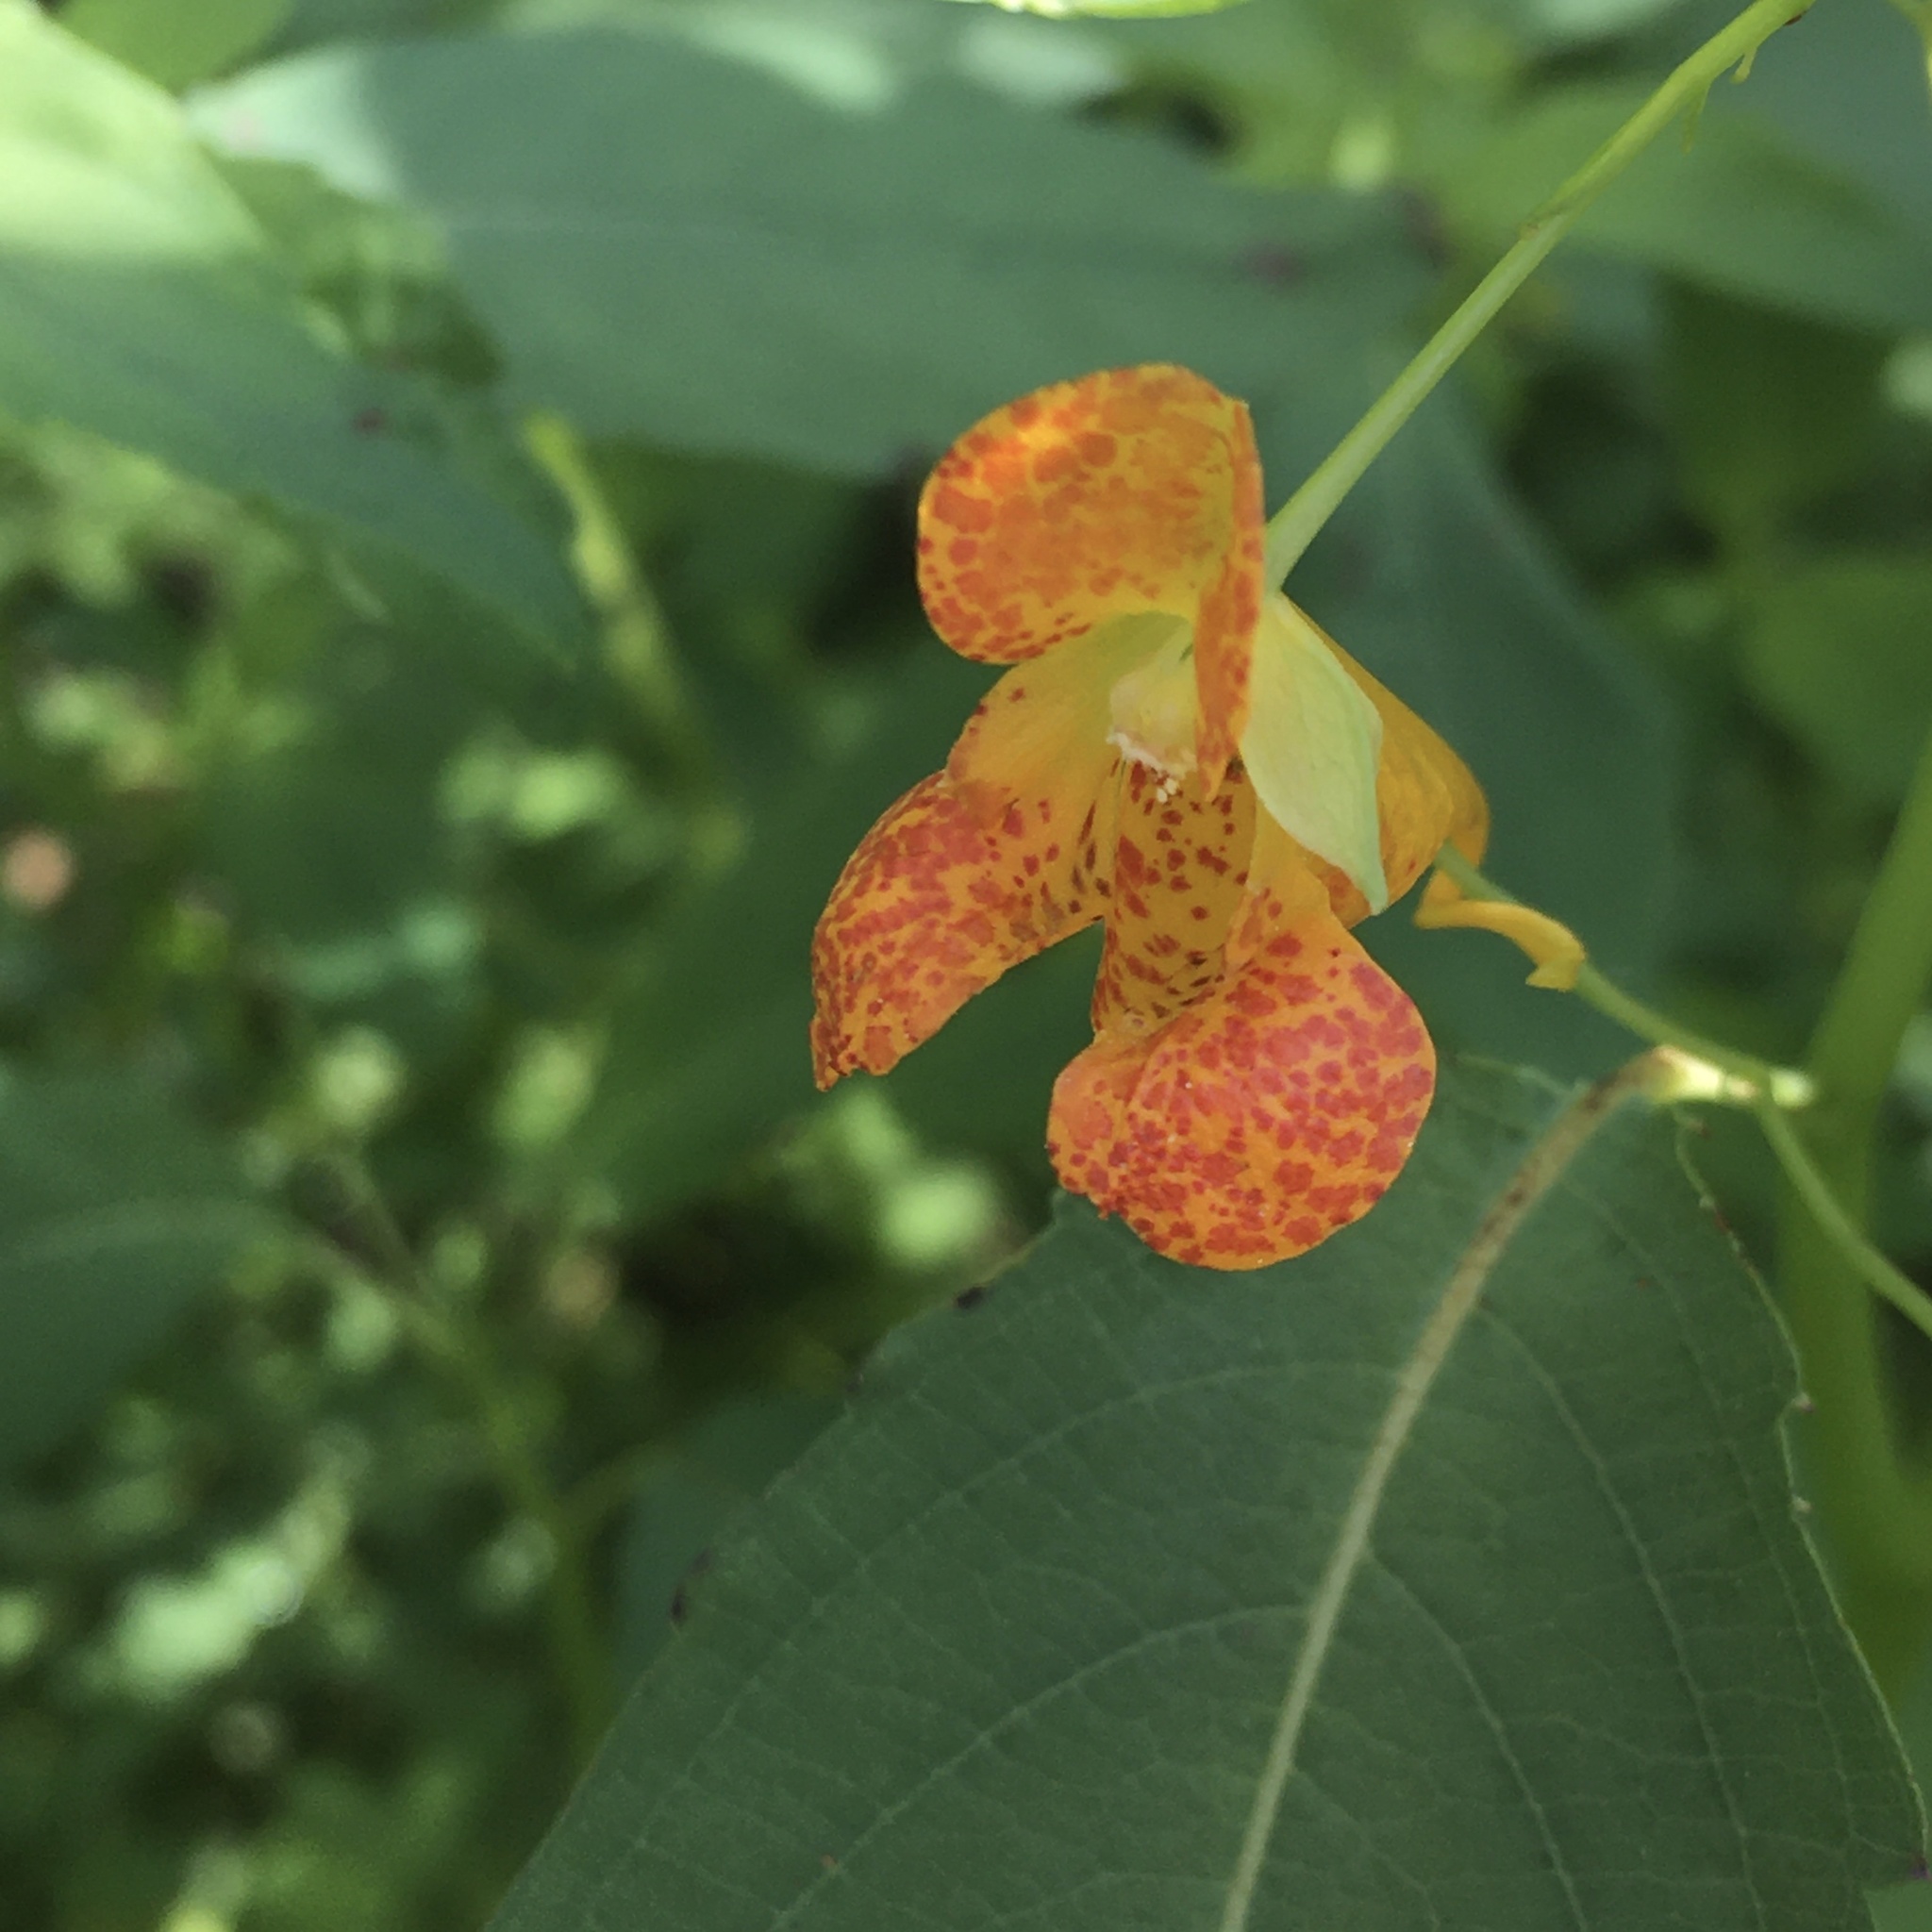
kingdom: Plantae
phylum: Tracheophyta
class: Magnoliopsida
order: Ericales
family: Balsaminaceae
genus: Impatiens
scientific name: Impatiens capensis
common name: Orange balsam
